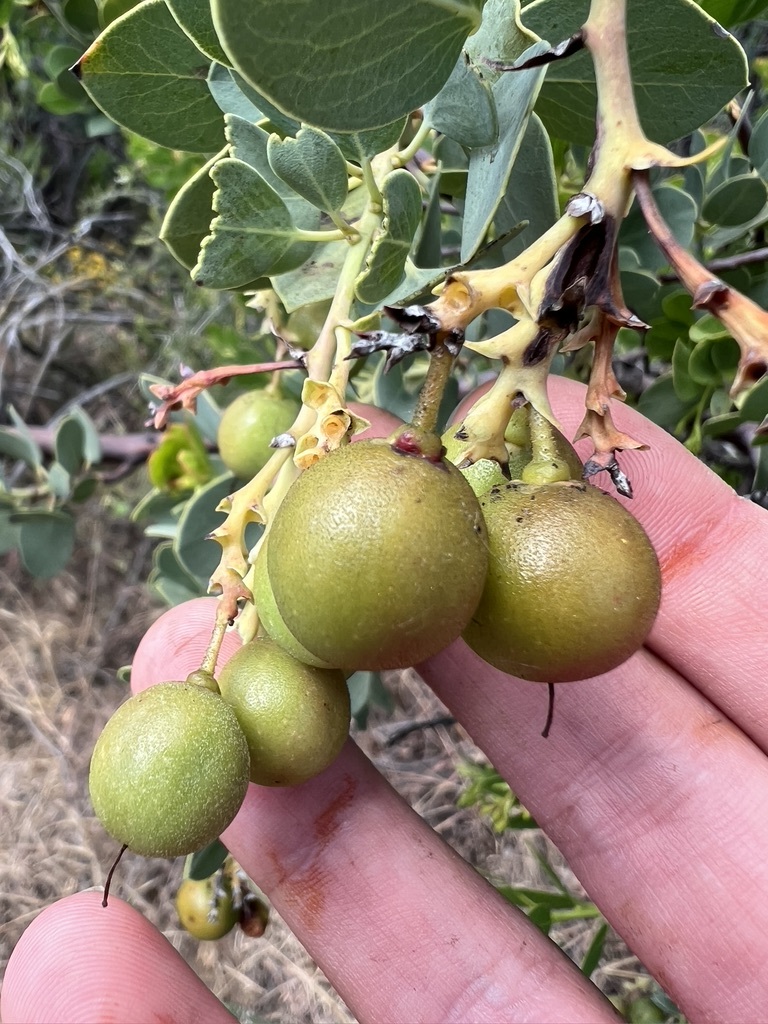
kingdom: Plantae
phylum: Tracheophyta
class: Magnoliopsida
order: Ericales
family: Ericaceae
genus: Arctostaphylos
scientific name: Arctostaphylos glauca
